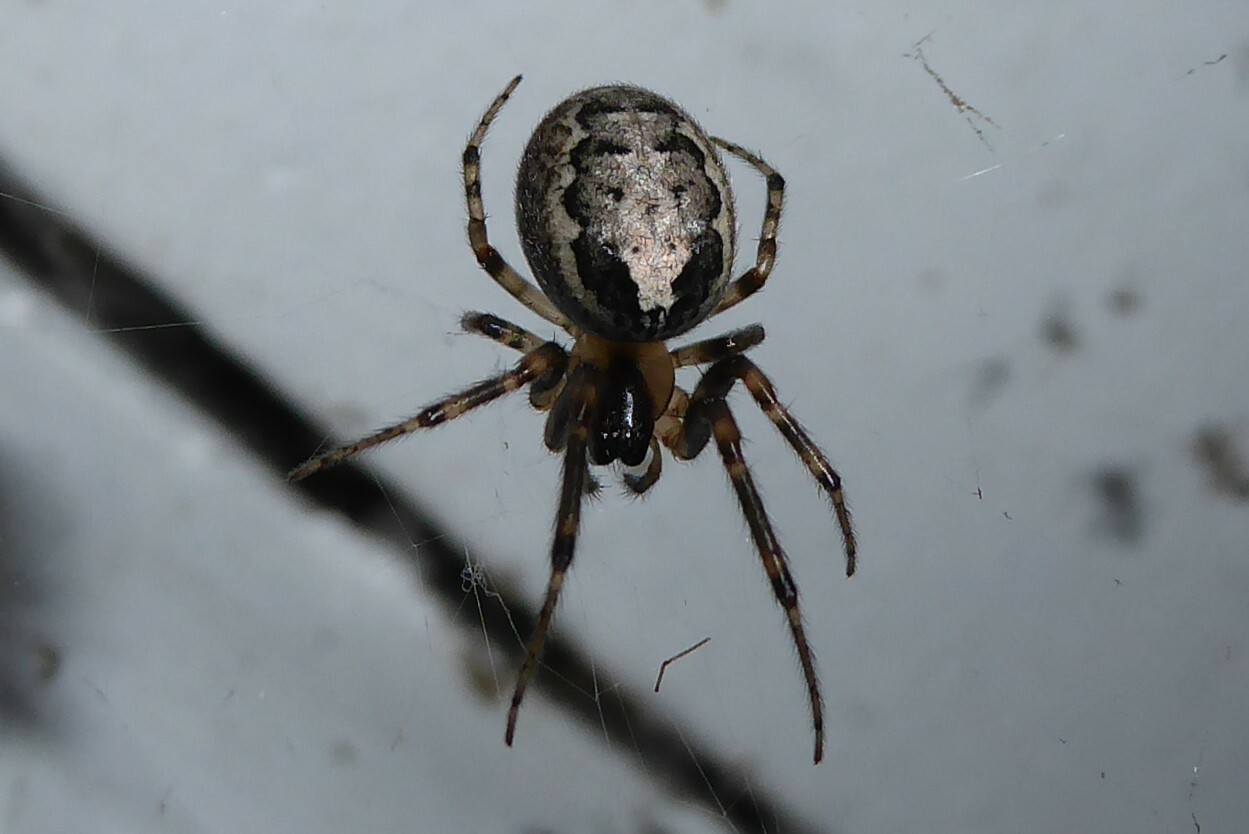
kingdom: Animalia
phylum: Arthropoda
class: Arachnida
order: Araneae
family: Araneidae
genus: Zygiella
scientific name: Zygiella x-notata
